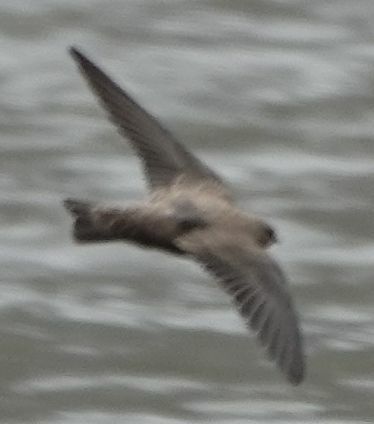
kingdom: Animalia
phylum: Chordata
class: Aves
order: Passeriformes
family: Hirundinidae
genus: Ptyonoprogne
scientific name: Ptyonoprogne rupestris
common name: Eurasian crag martin
